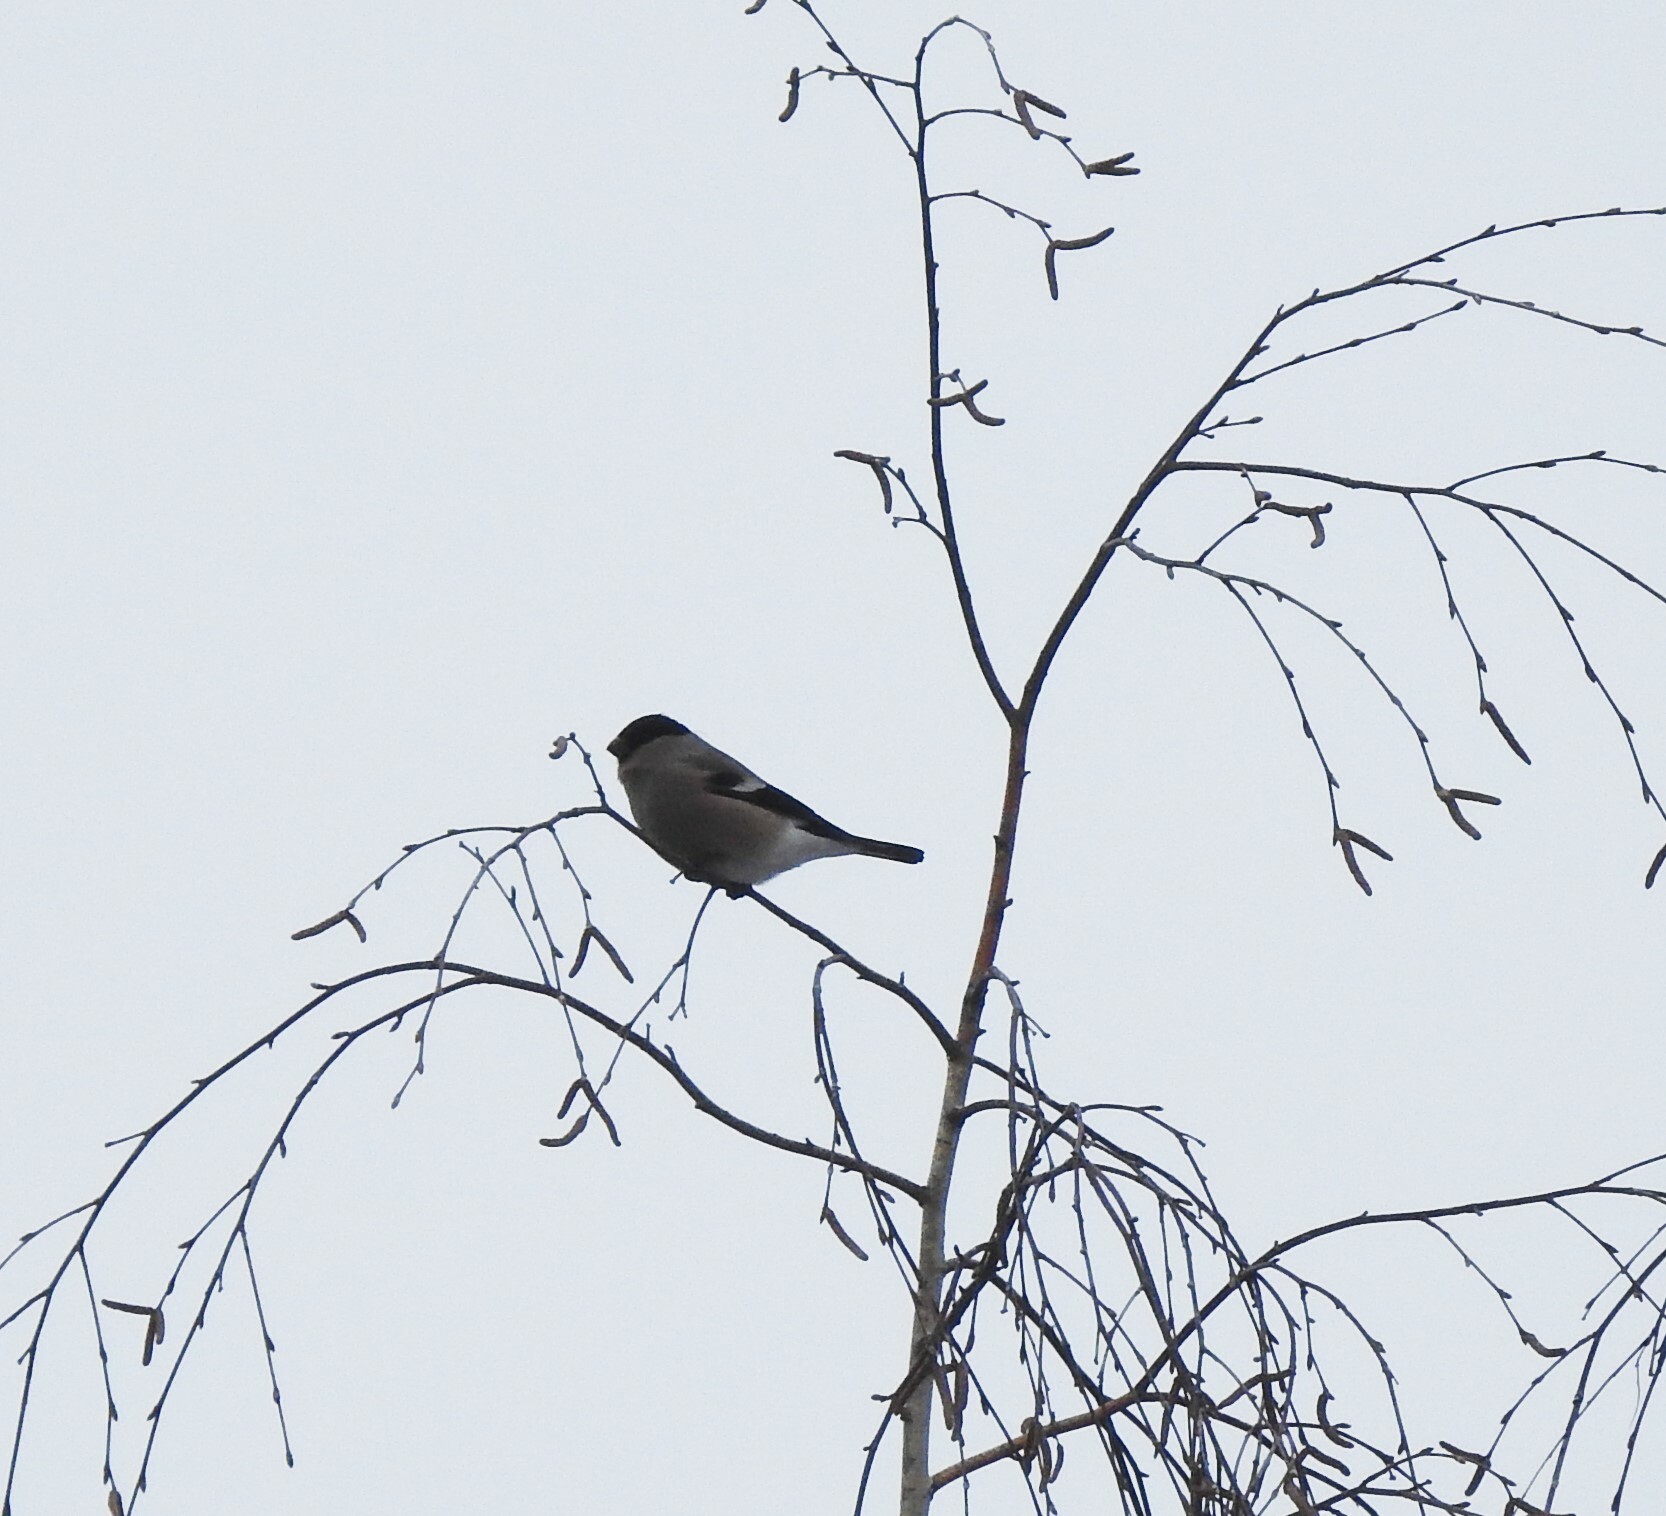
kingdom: Animalia
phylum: Chordata
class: Aves
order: Passeriformes
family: Fringillidae
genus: Pyrrhula
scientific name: Pyrrhula pyrrhula
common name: Eurasian bullfinch
